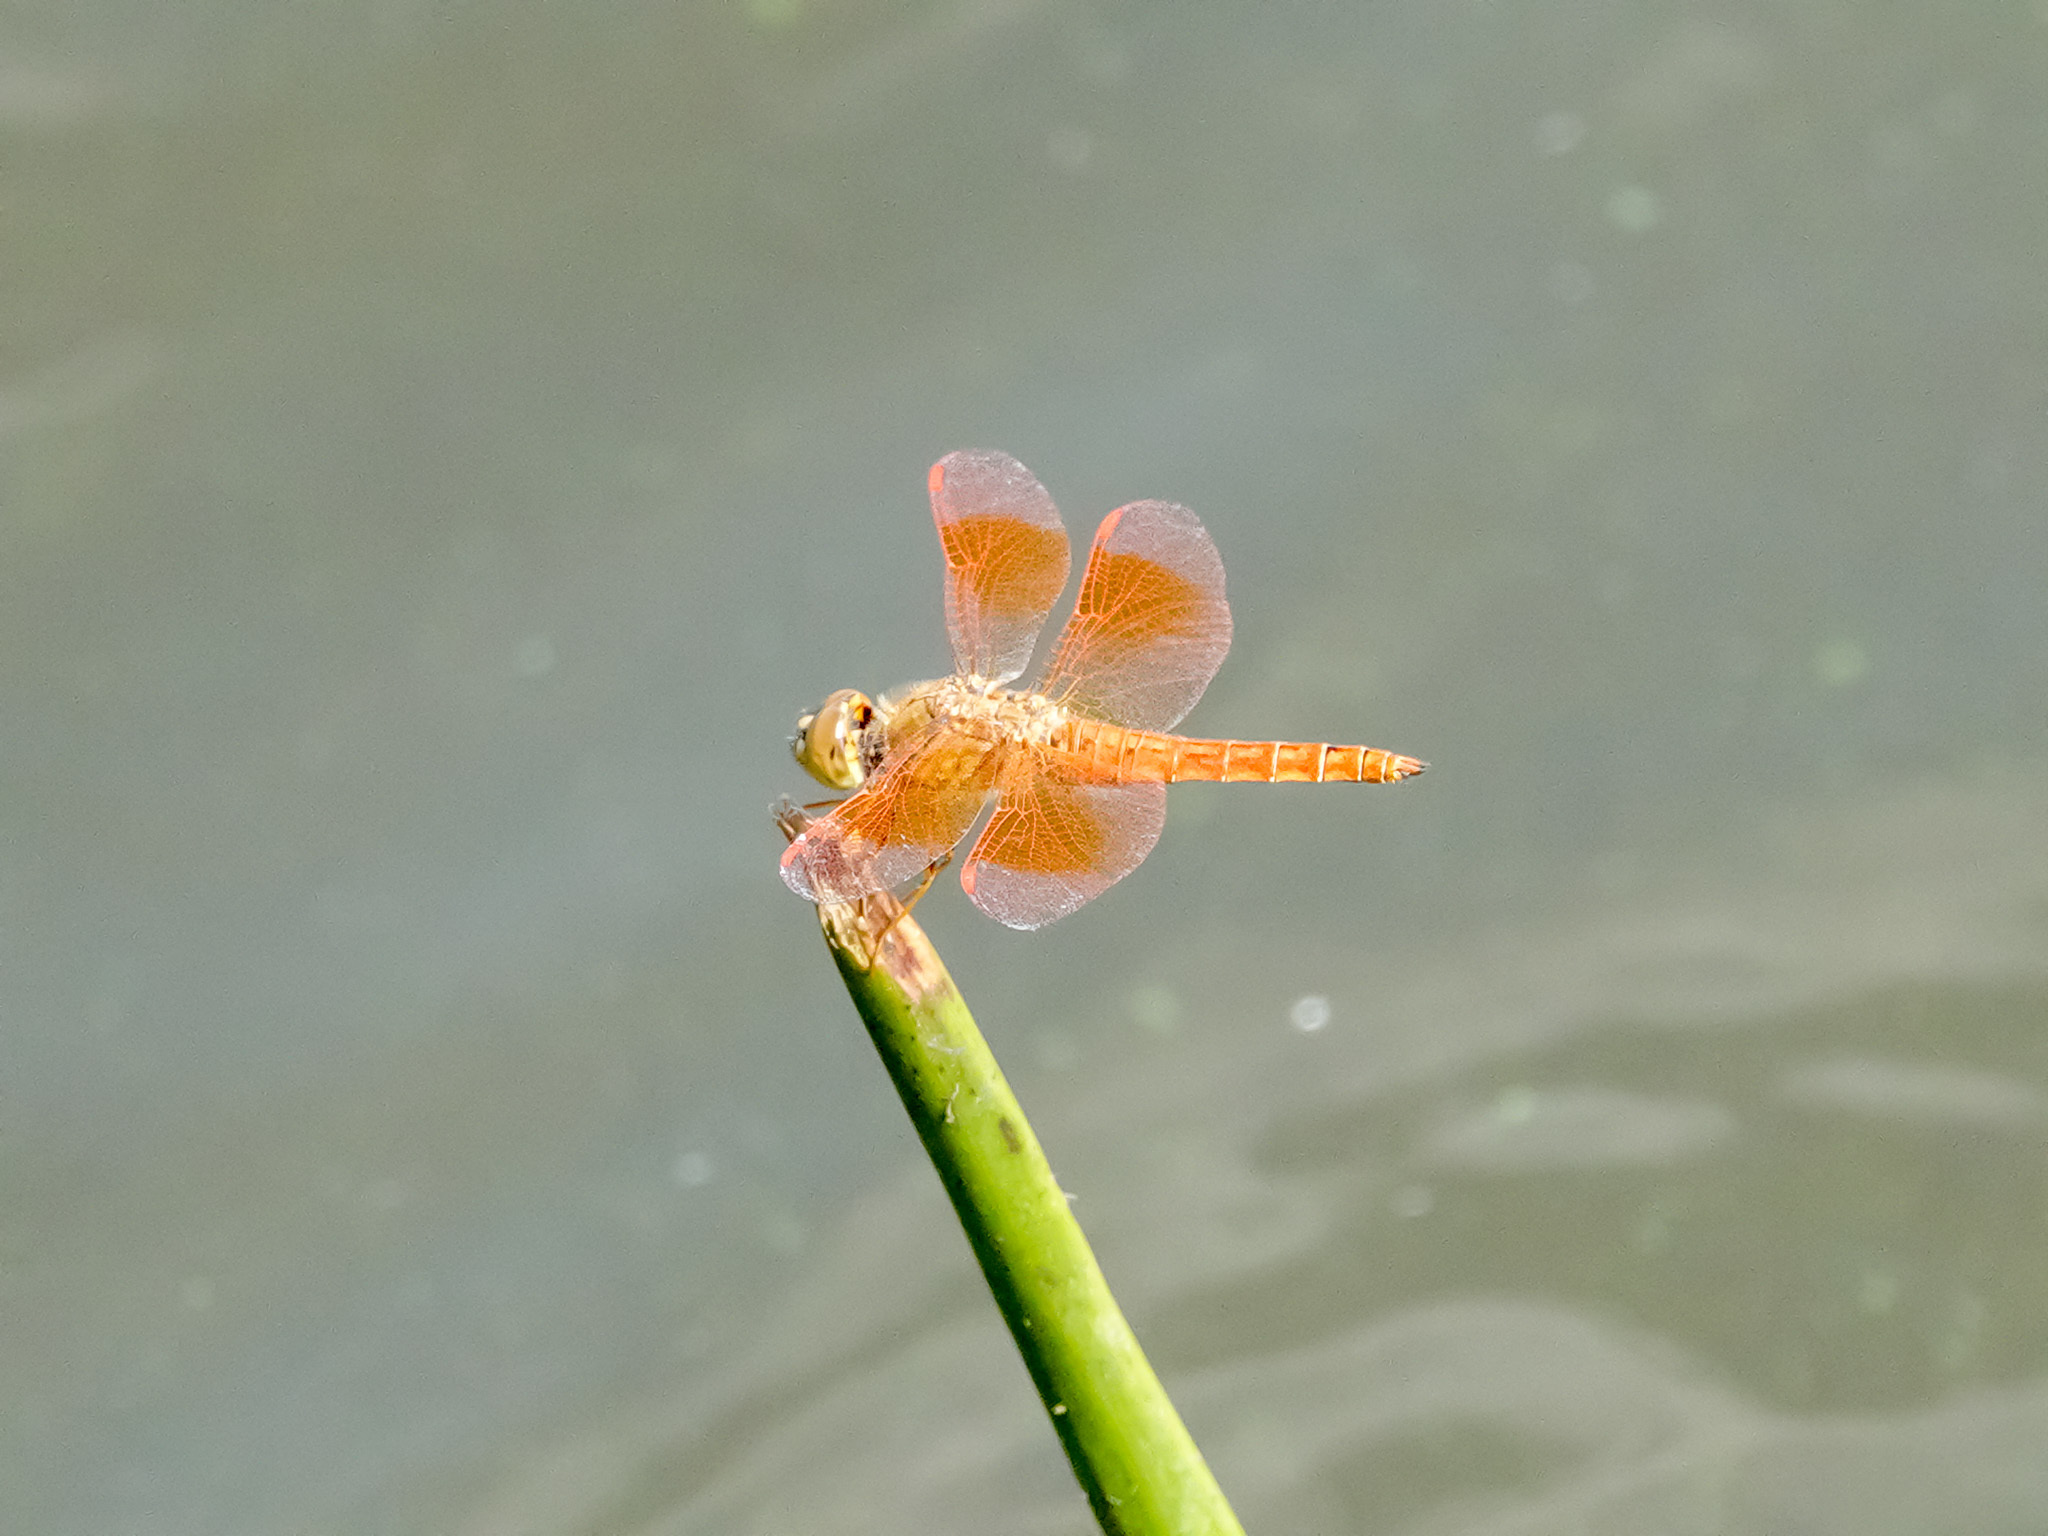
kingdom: Animalia
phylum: Arthropoda
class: Insecta
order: Odonata
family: Libellulidae
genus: Brachythemis
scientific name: Brachythemis contaminata
